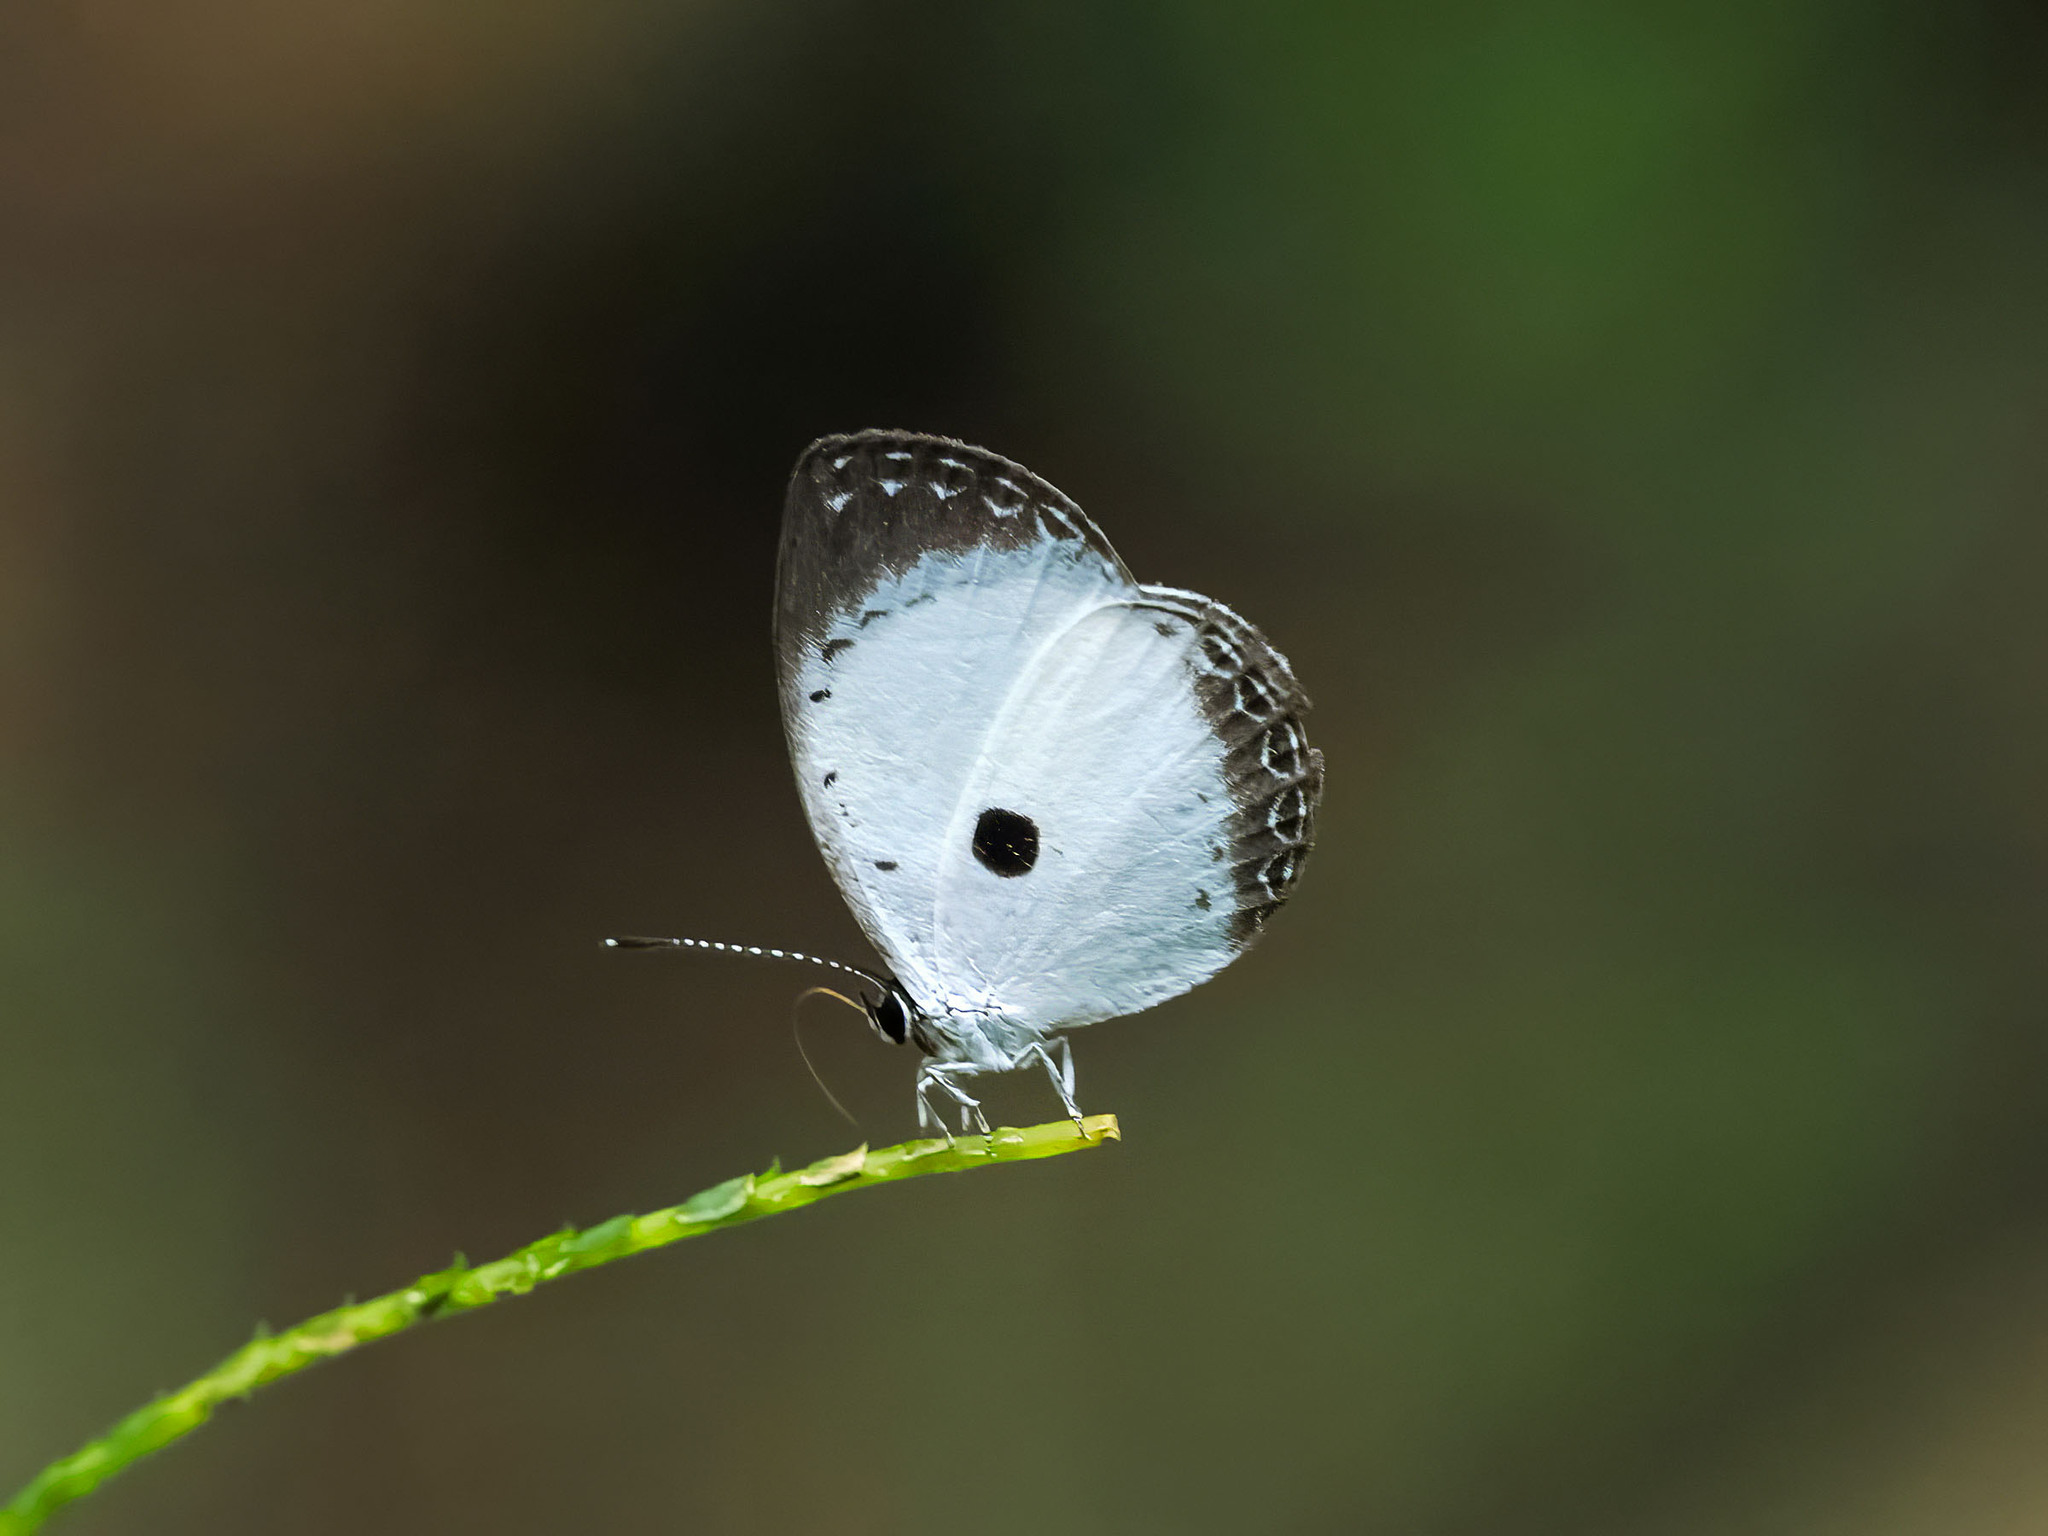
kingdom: Animalia
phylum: Arthropoda
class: Insecta
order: Lepidoptera
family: Lycaenidae
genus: Pithecops
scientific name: Pithecops dionisius
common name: Pied blue
